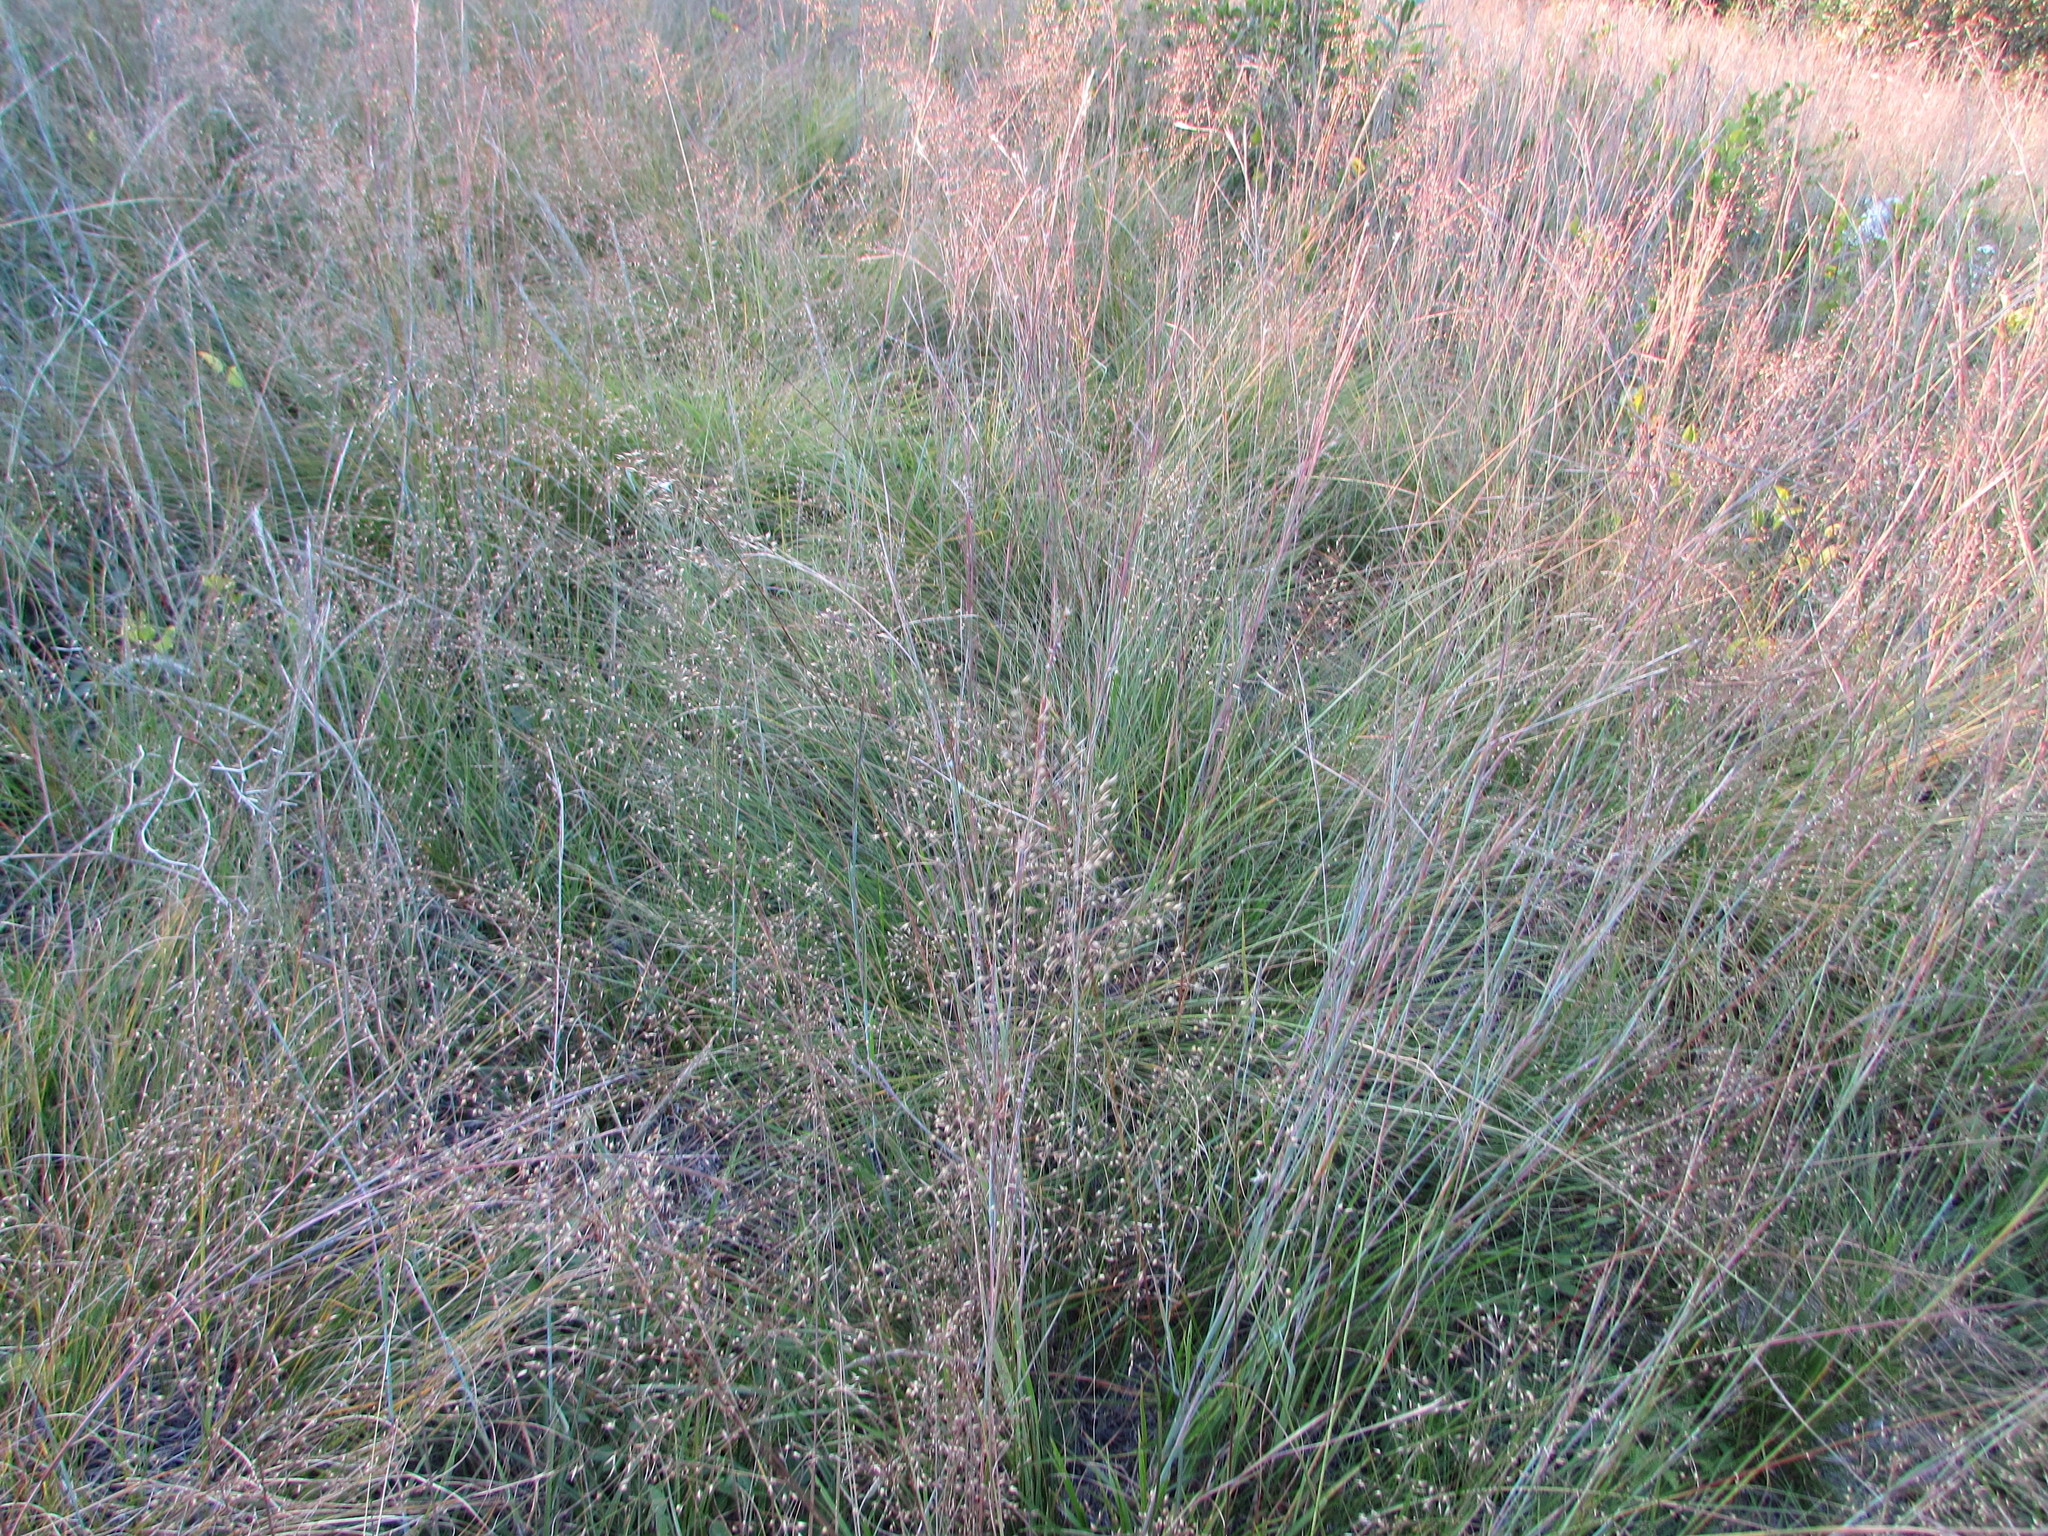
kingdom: Plantae
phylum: Tracheophyta
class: Liliopsida
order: Poales
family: Poaceae
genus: Sporobolus
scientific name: Sporobolus heterolepis
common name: Prairie dropseed
